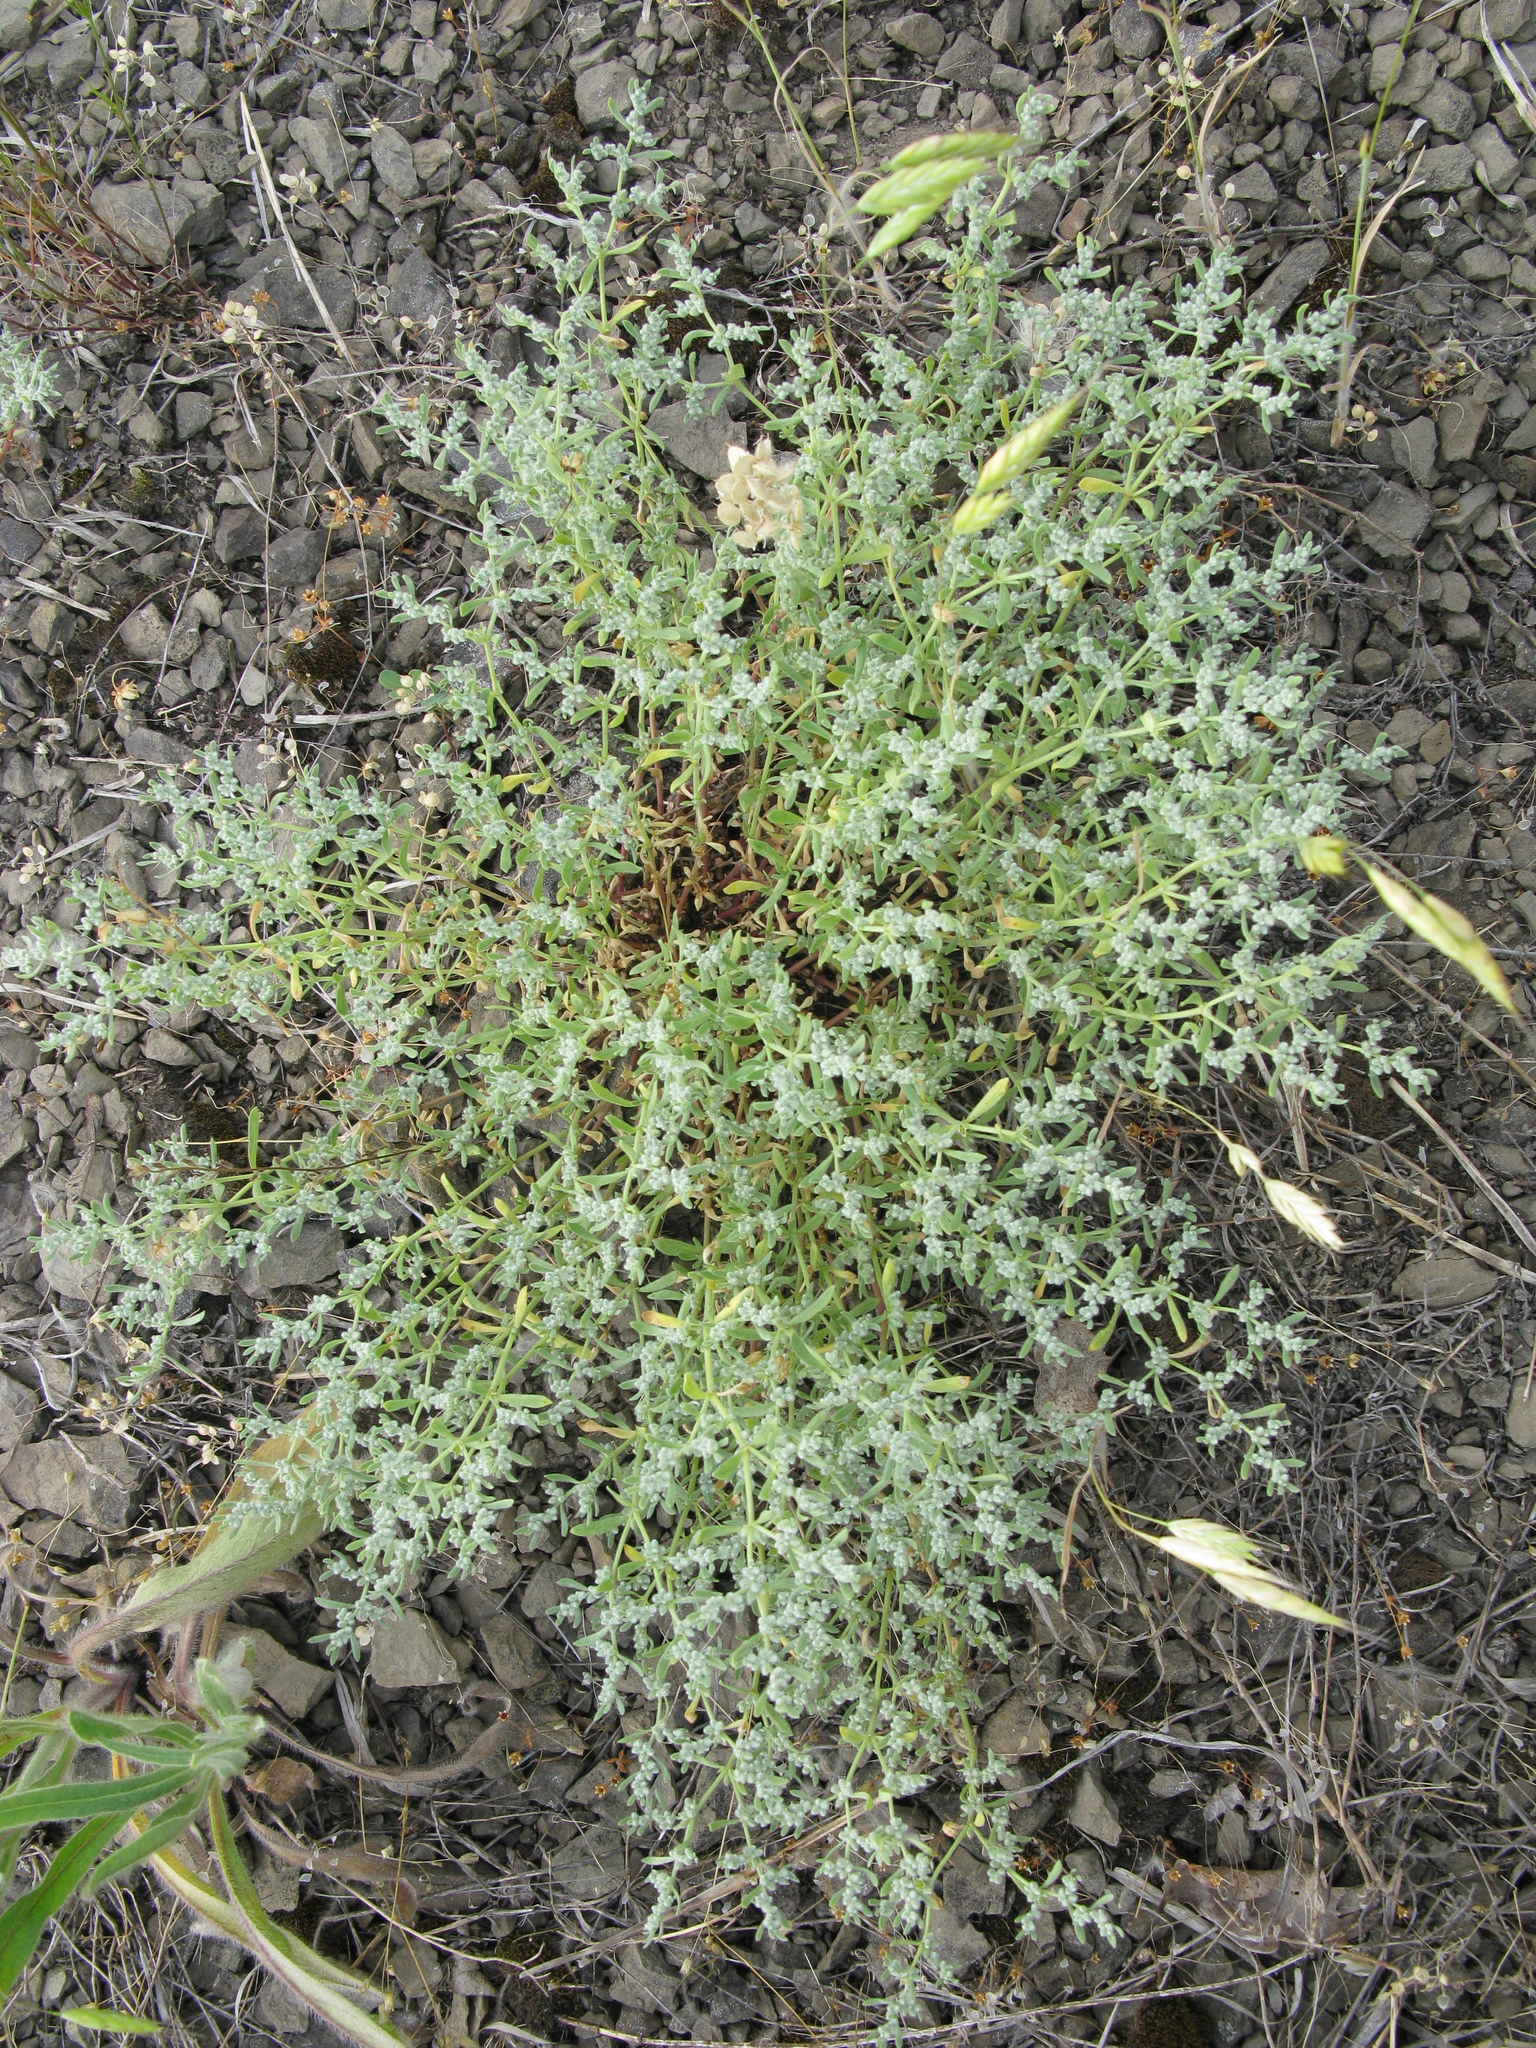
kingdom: Plantae
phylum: Tracheophyta
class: Magnoliopsida
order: Caryophyllales
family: Caryophyllaceae
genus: Herniaria
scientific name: Herniaria incana
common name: Gray rupturewort
